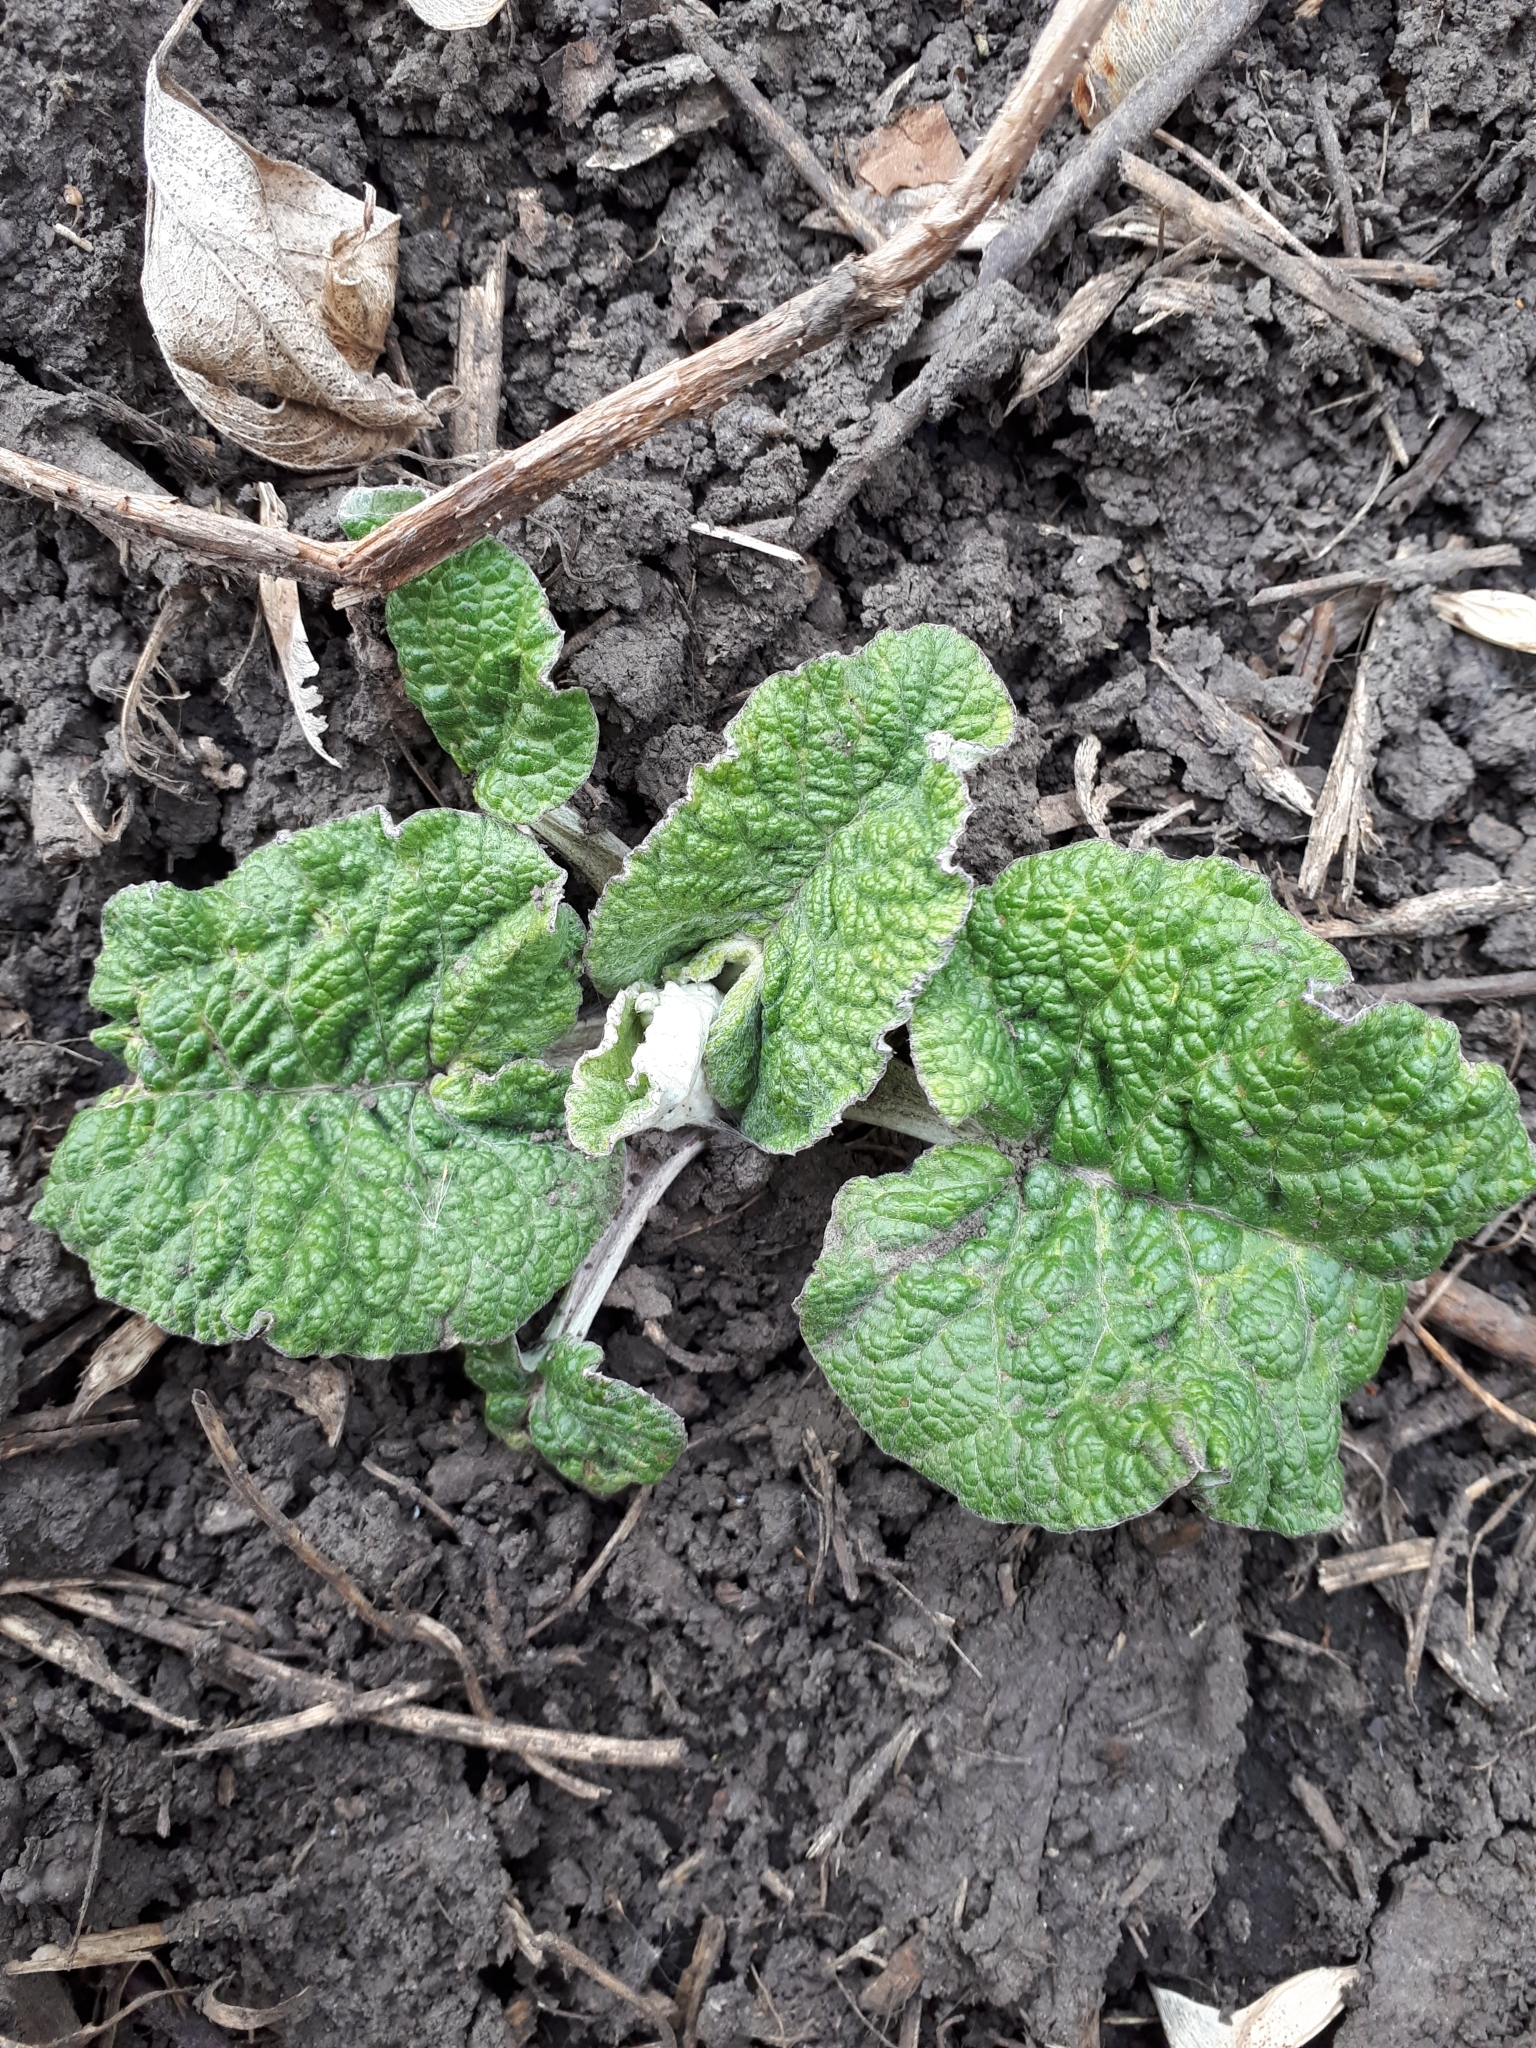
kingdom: Plantae
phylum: Tracheophyta
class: Magnoliopsida
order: Asterales
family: Asteraceae
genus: Arctium
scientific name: Arctium
